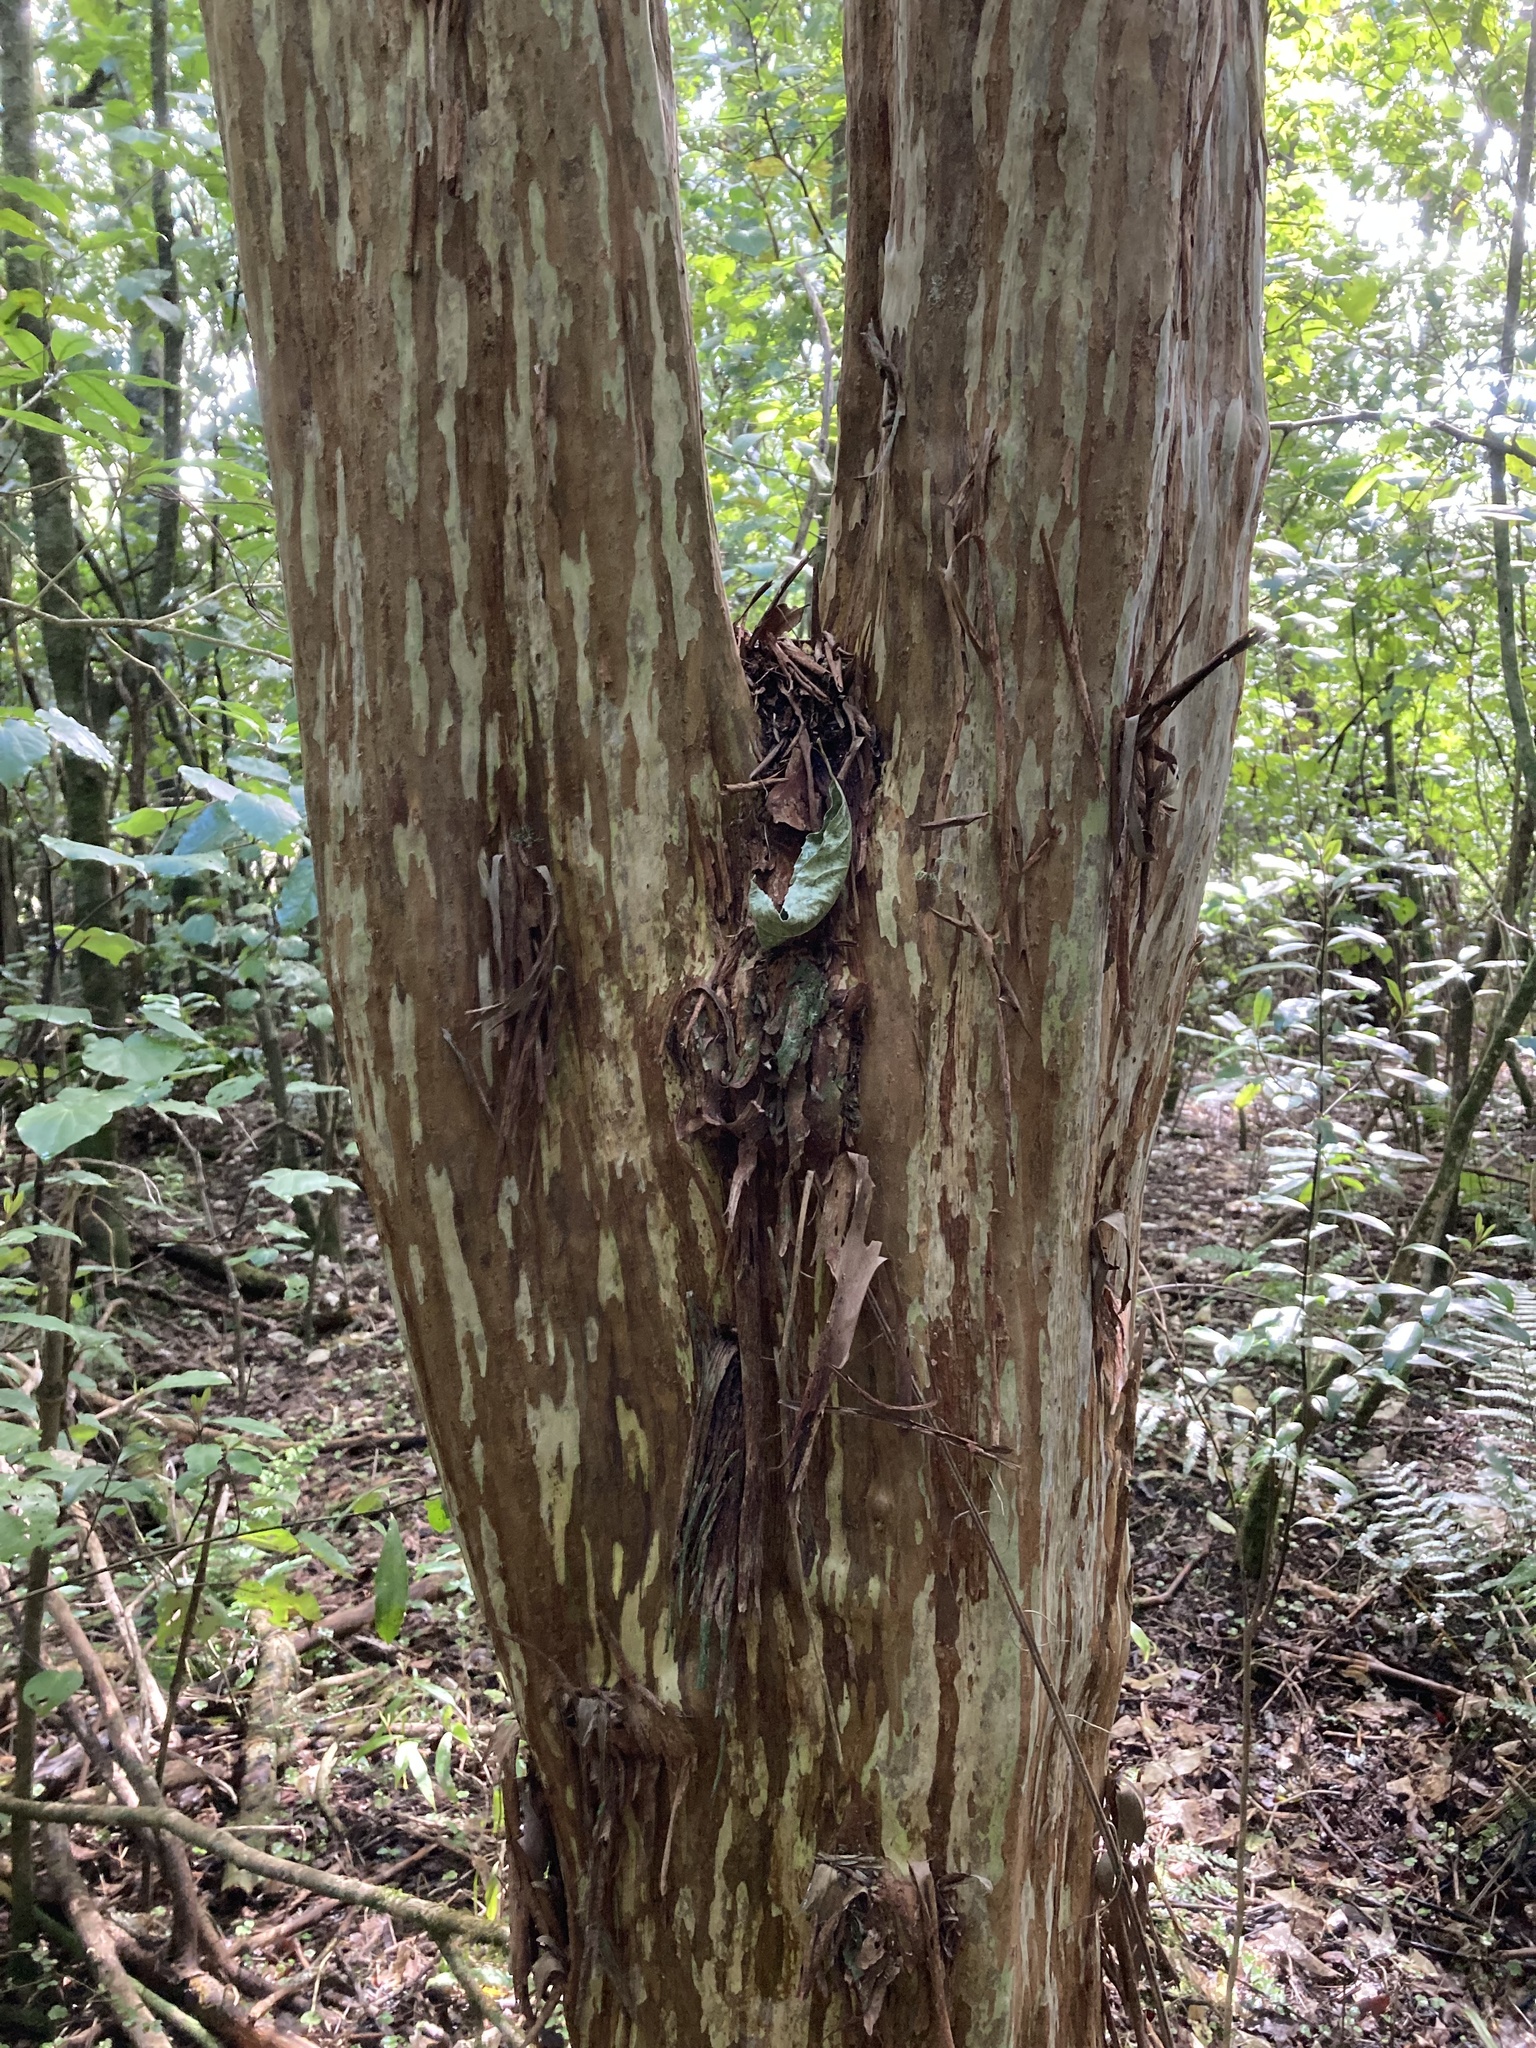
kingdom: Plantae
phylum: Tracheophyta
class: Magnoliopsida
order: Myrtales
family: Myrtaceae
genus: Lophomyrtus
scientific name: Lophomyrtus obcordata
